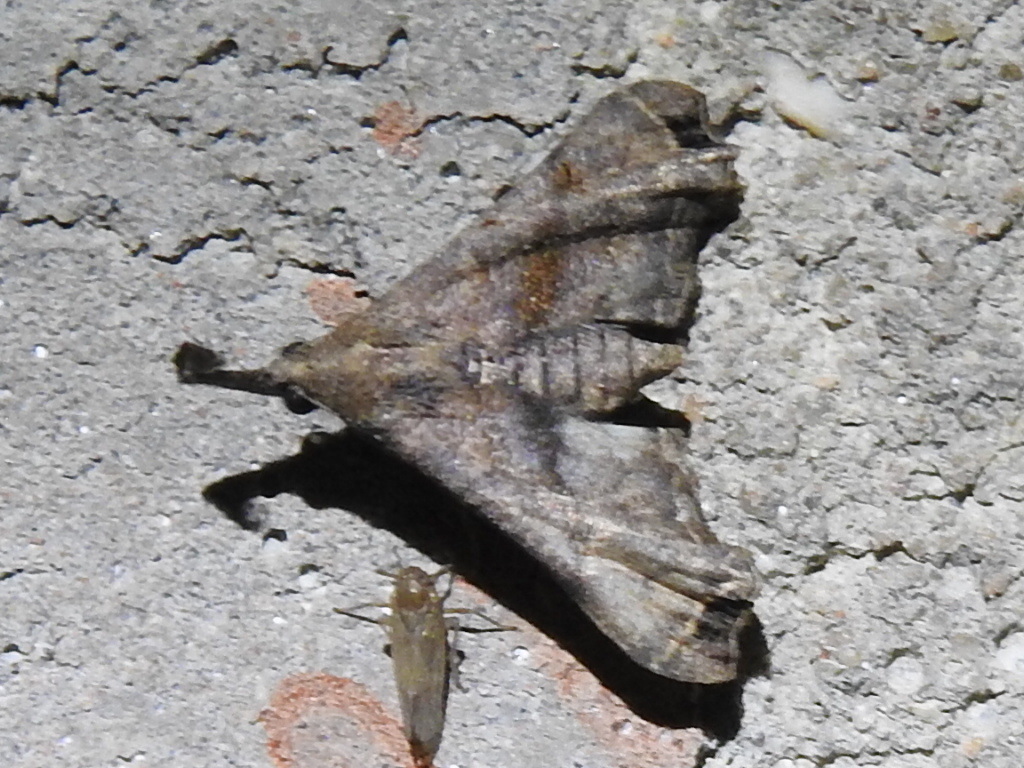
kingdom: Animalia
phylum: Arthropoda
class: Insecta
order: Lepidoptera
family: Erebidae
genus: Palthis
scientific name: Palthis asopialis
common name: Faint-spotted palthis moth
